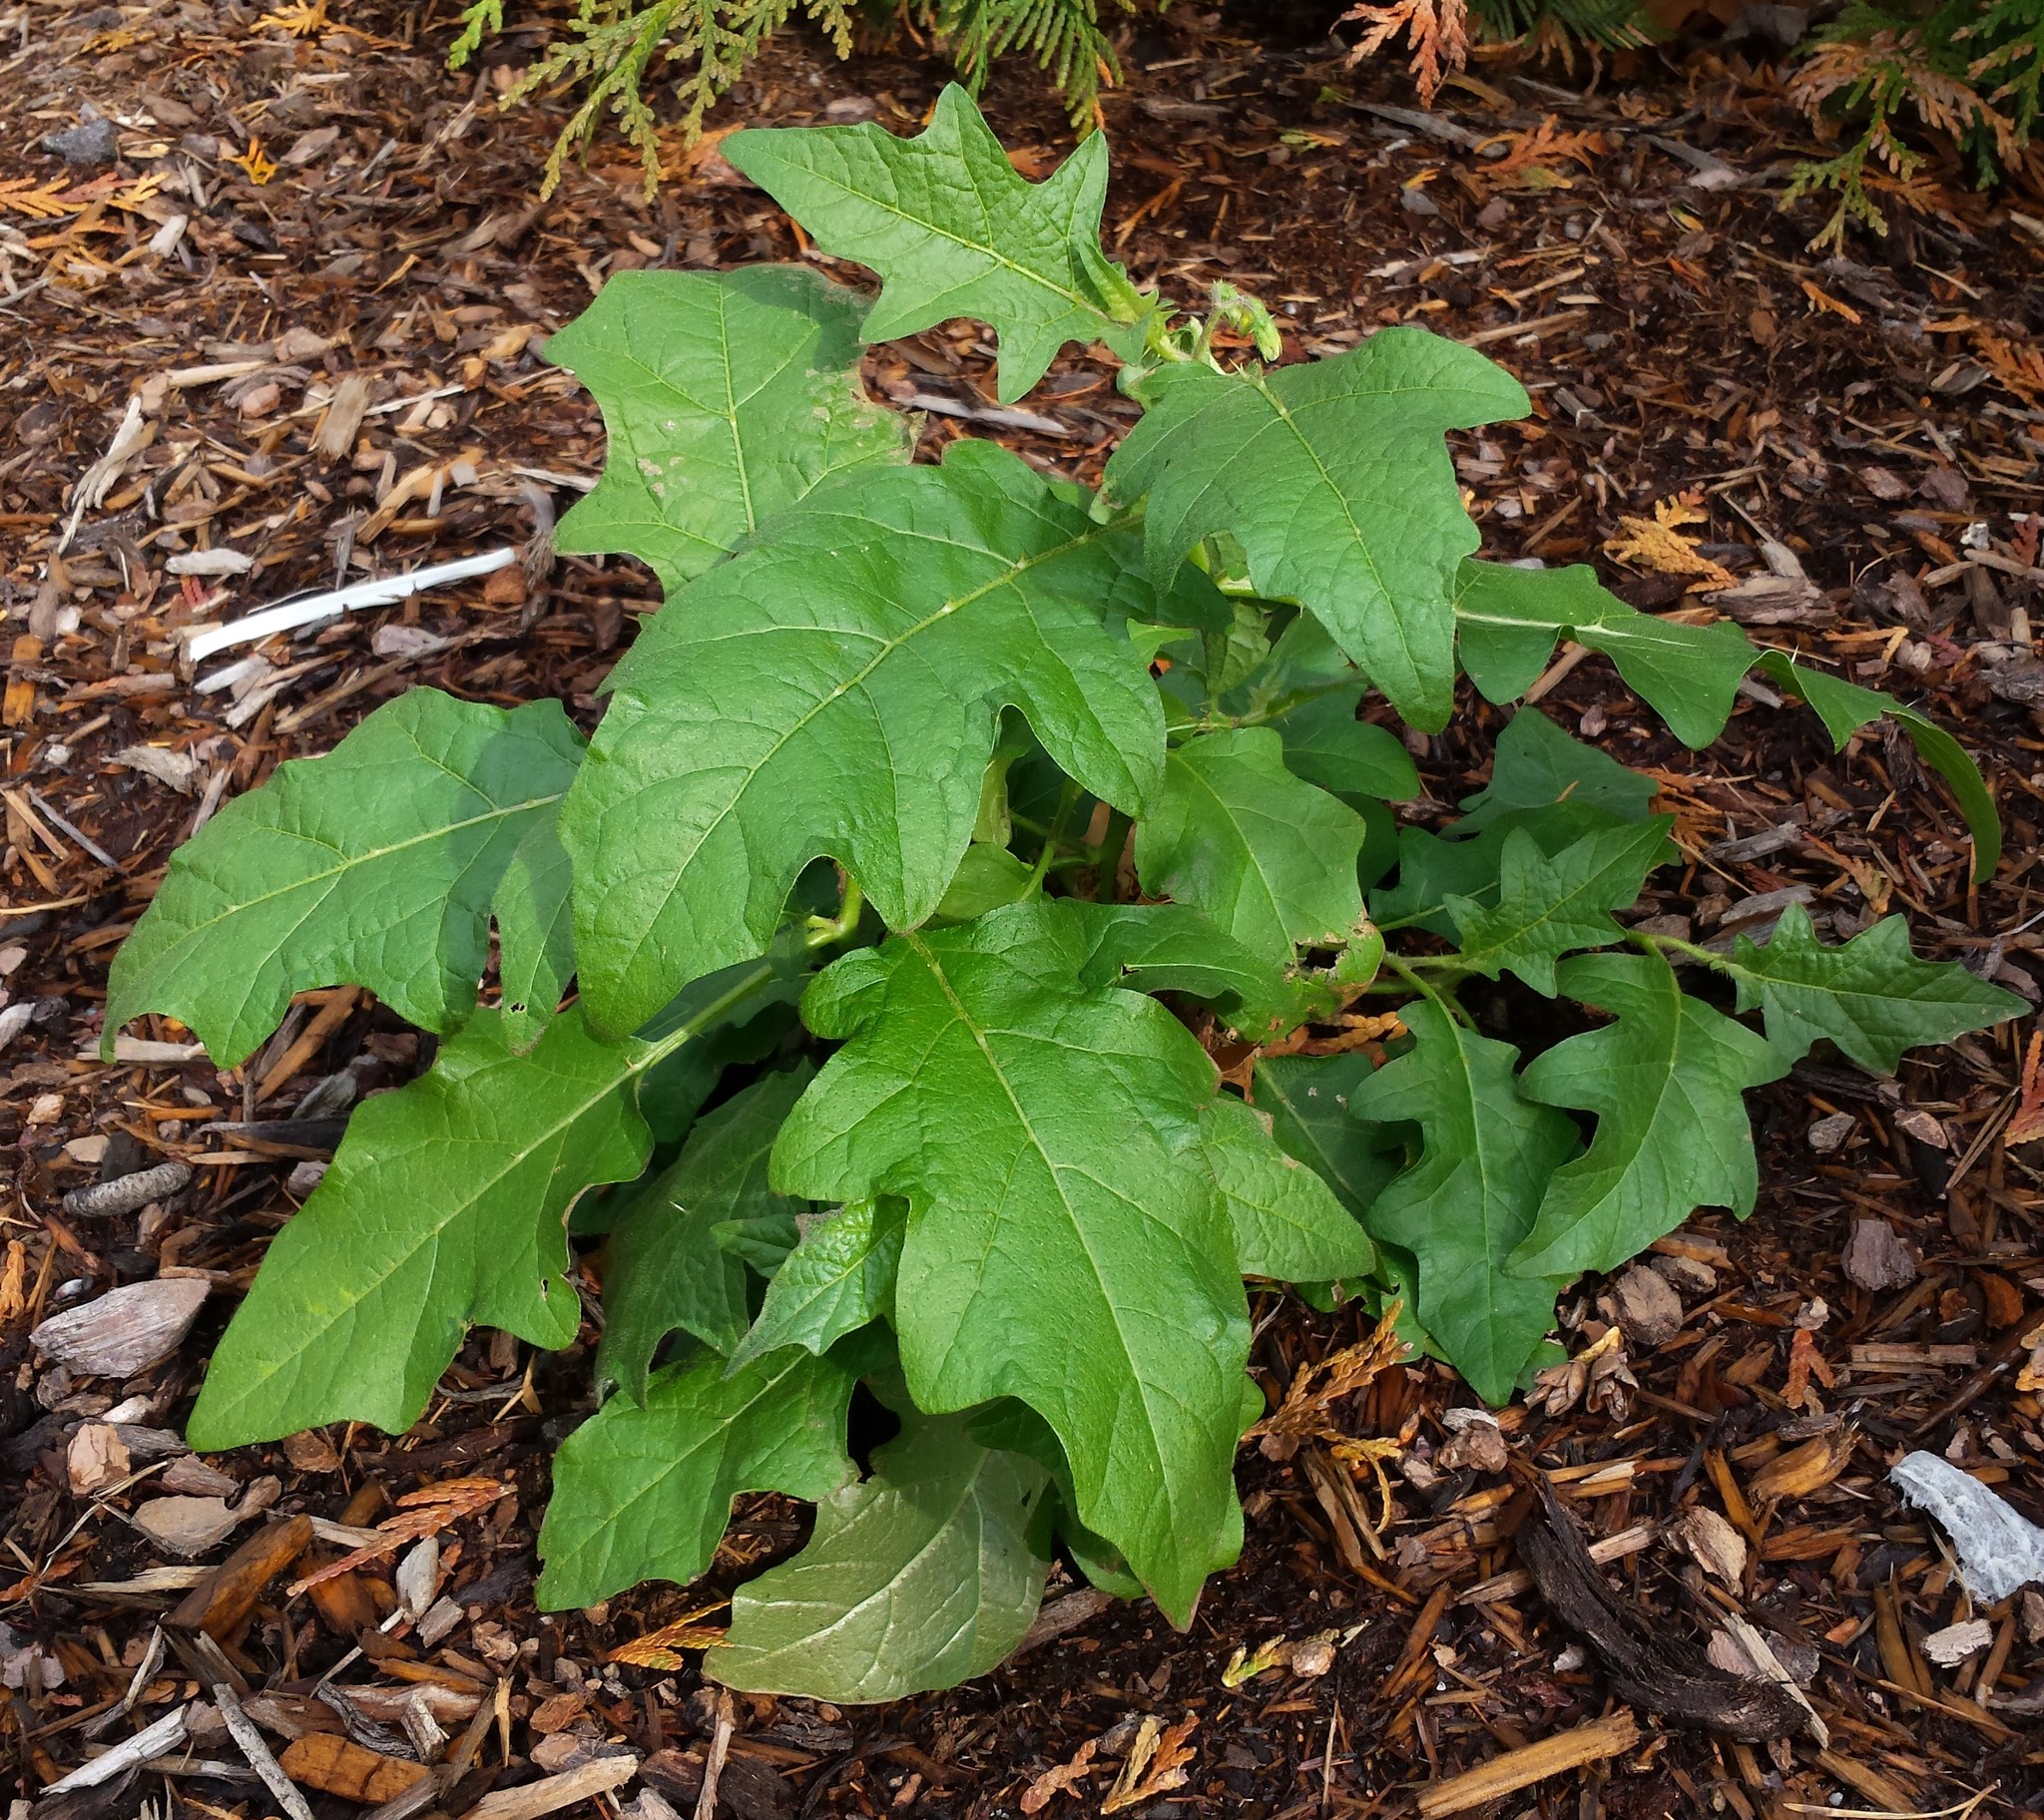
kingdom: Plantae
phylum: Tracheophyta
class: Magnoliopsida
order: Solanales
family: Solanaceae
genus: Solanum
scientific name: Solanum carolinense
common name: Horse-nettle
